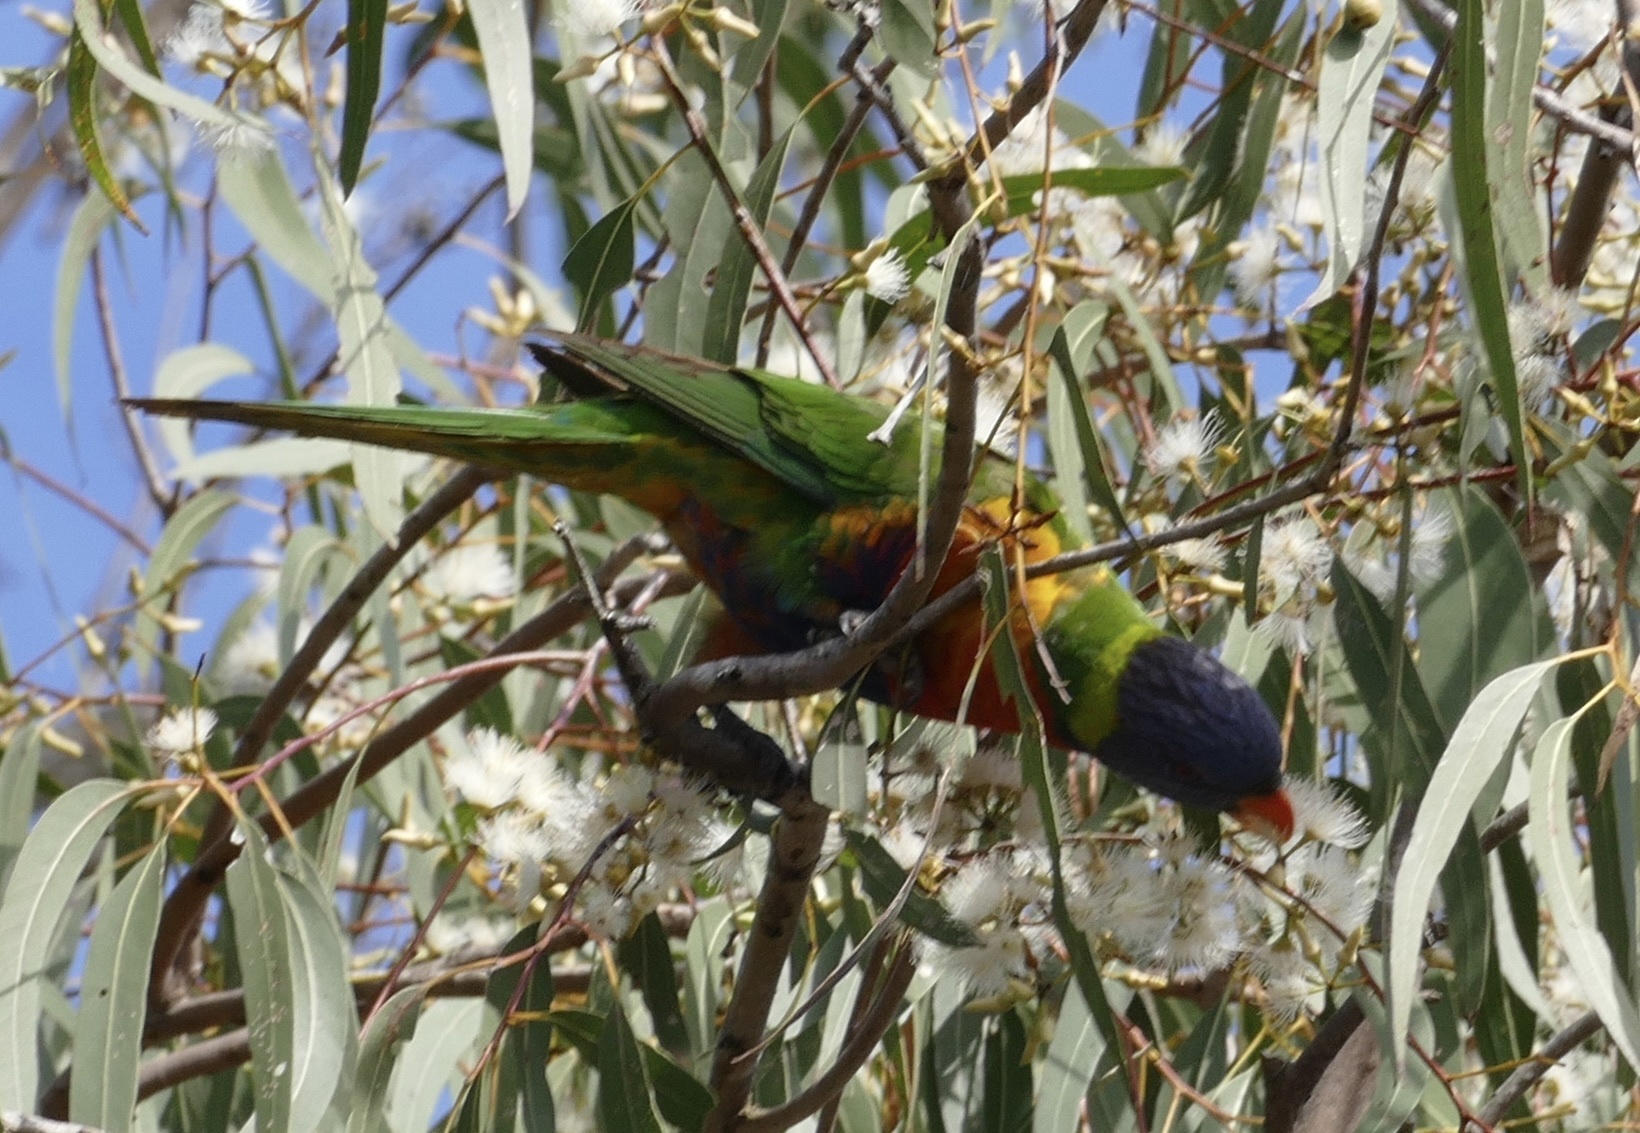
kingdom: Animalia
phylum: Chordata
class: Aves
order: Psittaciformes
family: Psittacidae
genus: Trichoglossus
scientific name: Trichoglossus haematodus
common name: Coconut lorikeet
